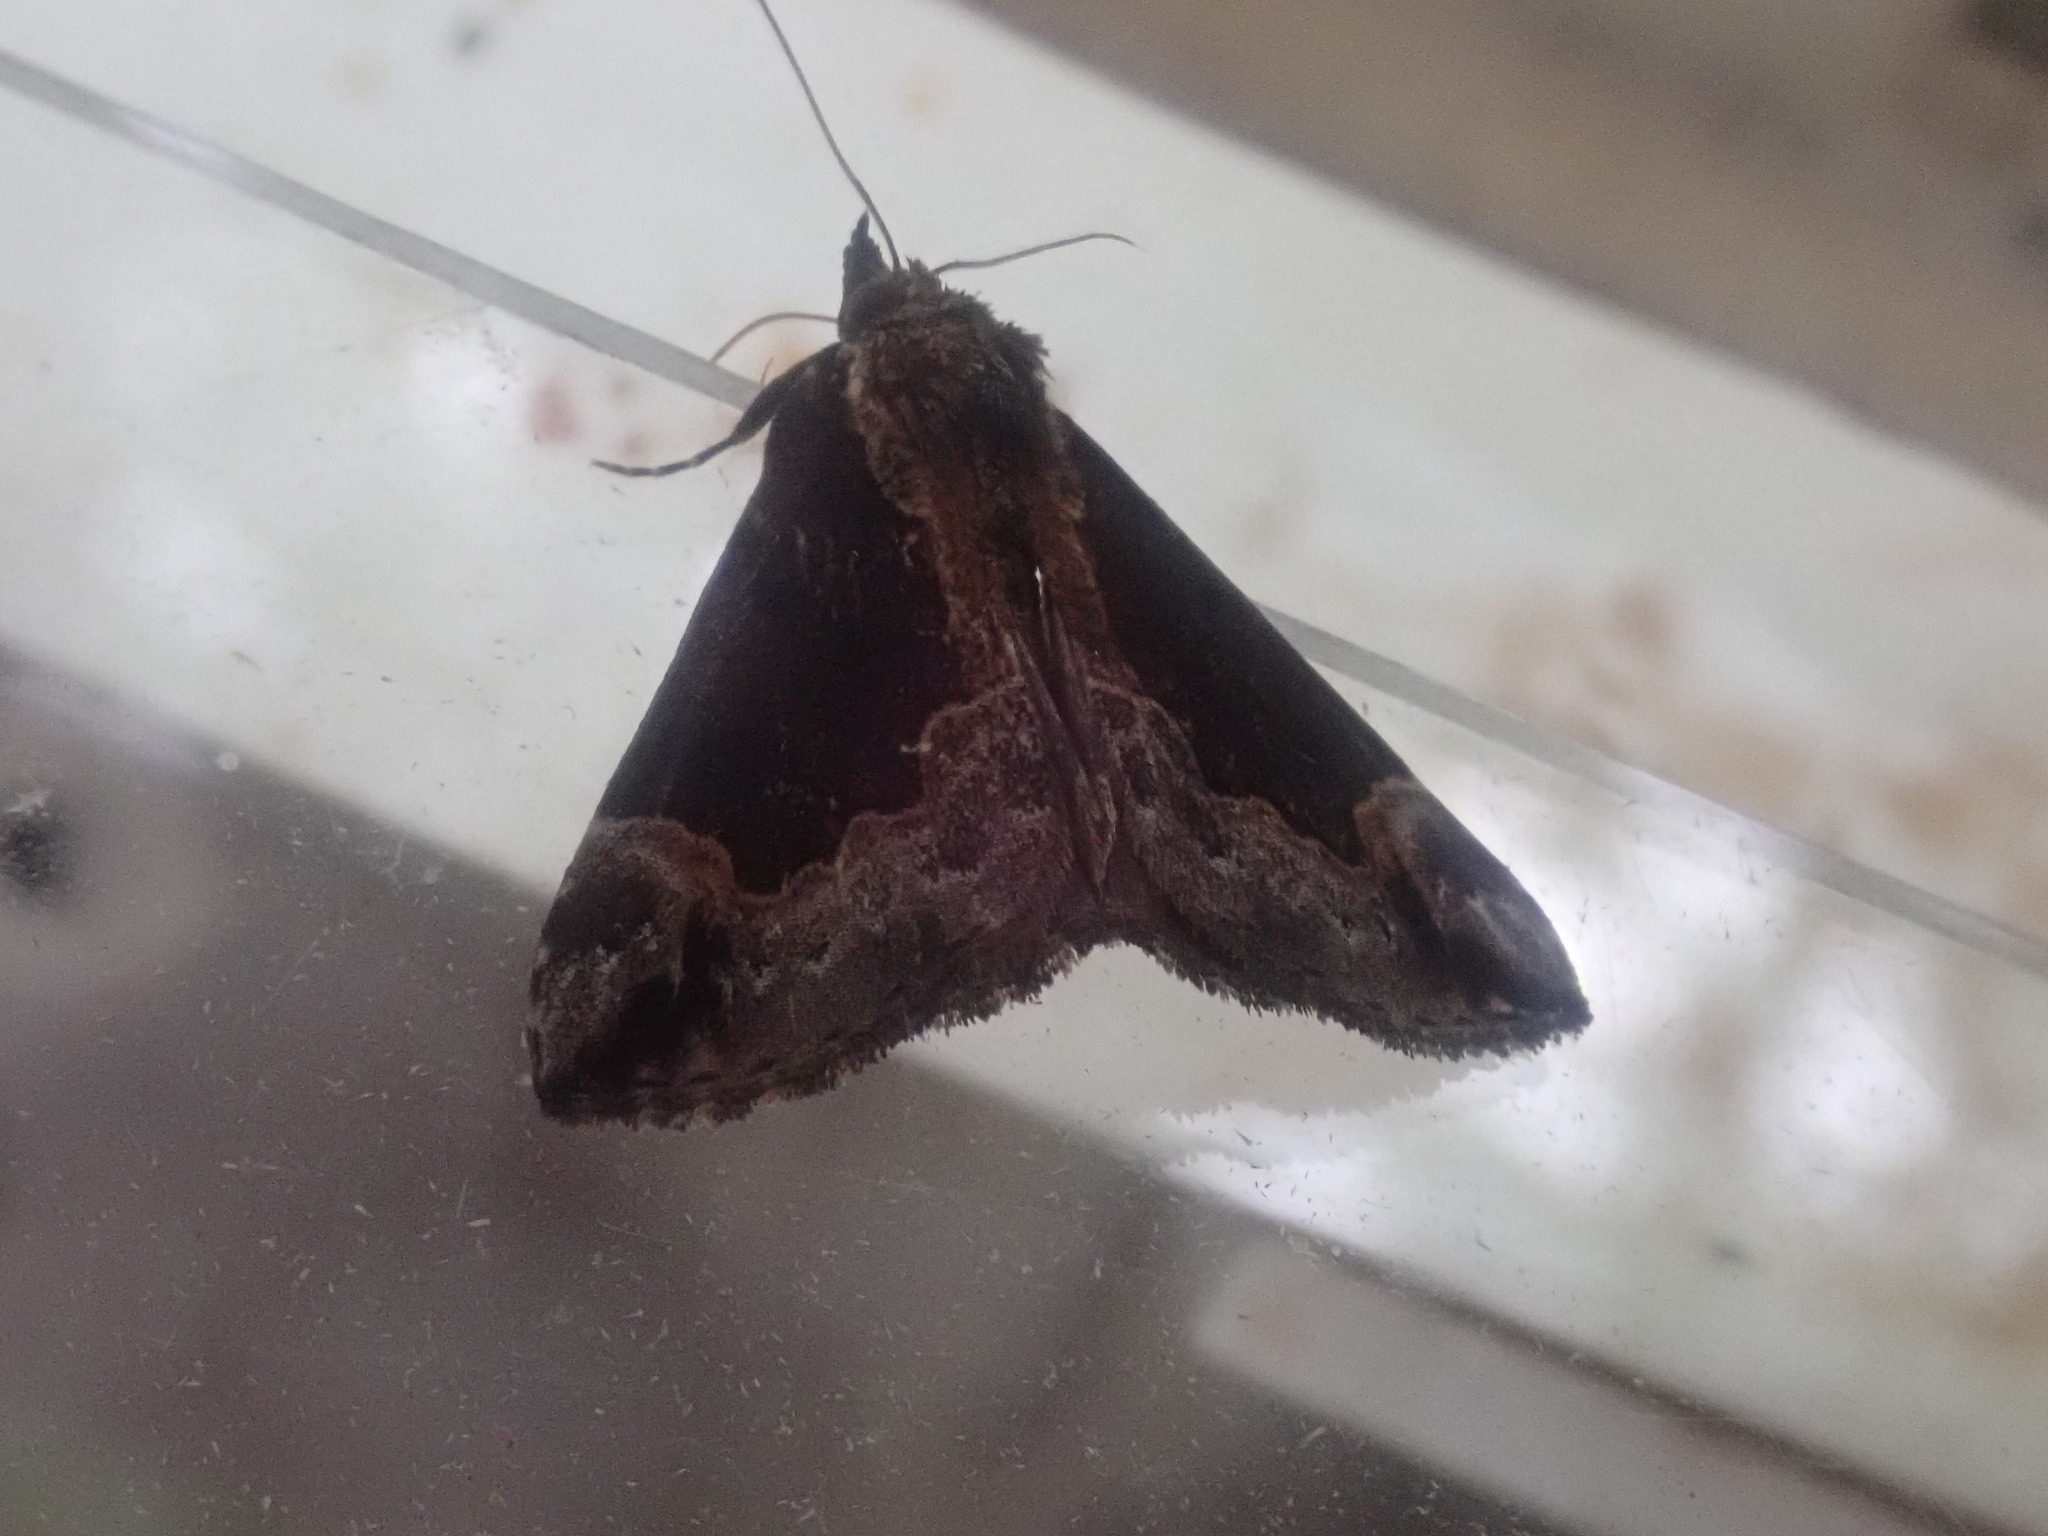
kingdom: Animalia
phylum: Arthropoda
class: Insecta
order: Lepidoptera
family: Erebidae
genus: Hypena
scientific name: Hypena baltimoralis
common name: Baltimore snout
